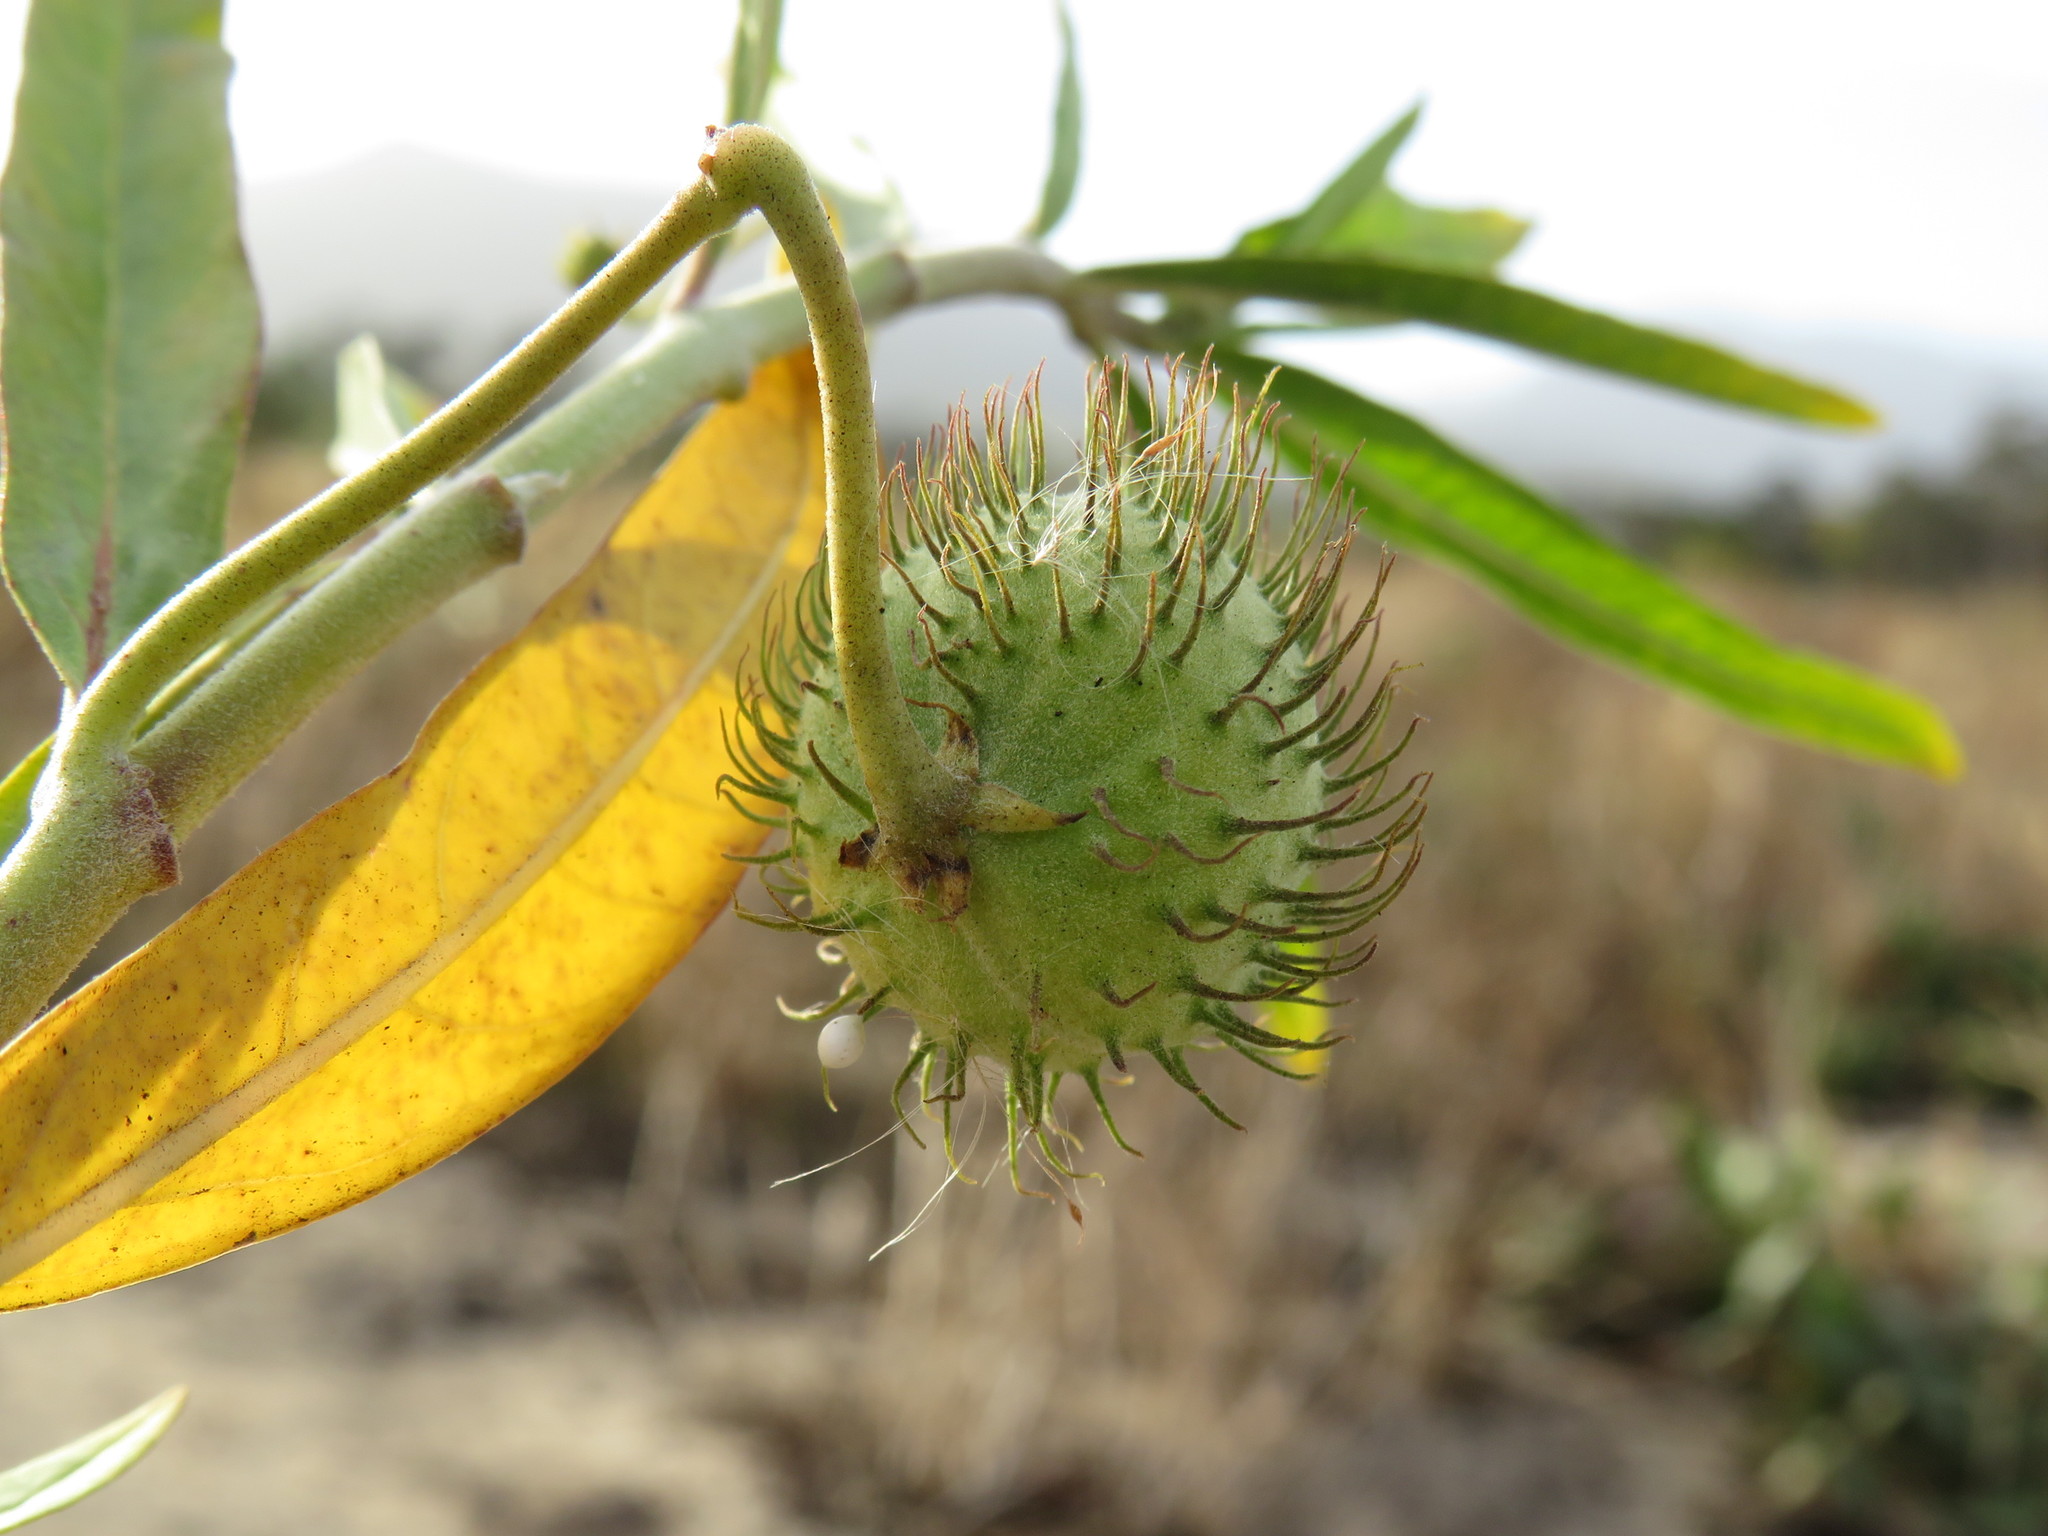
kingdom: Plantae
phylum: Tracheophyta
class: Magnoliopsida
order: Gentianales
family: Apocynaceae
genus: Gomphocarpus
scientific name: Gomphocarpus physocarpus
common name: Balloon cotton bush
